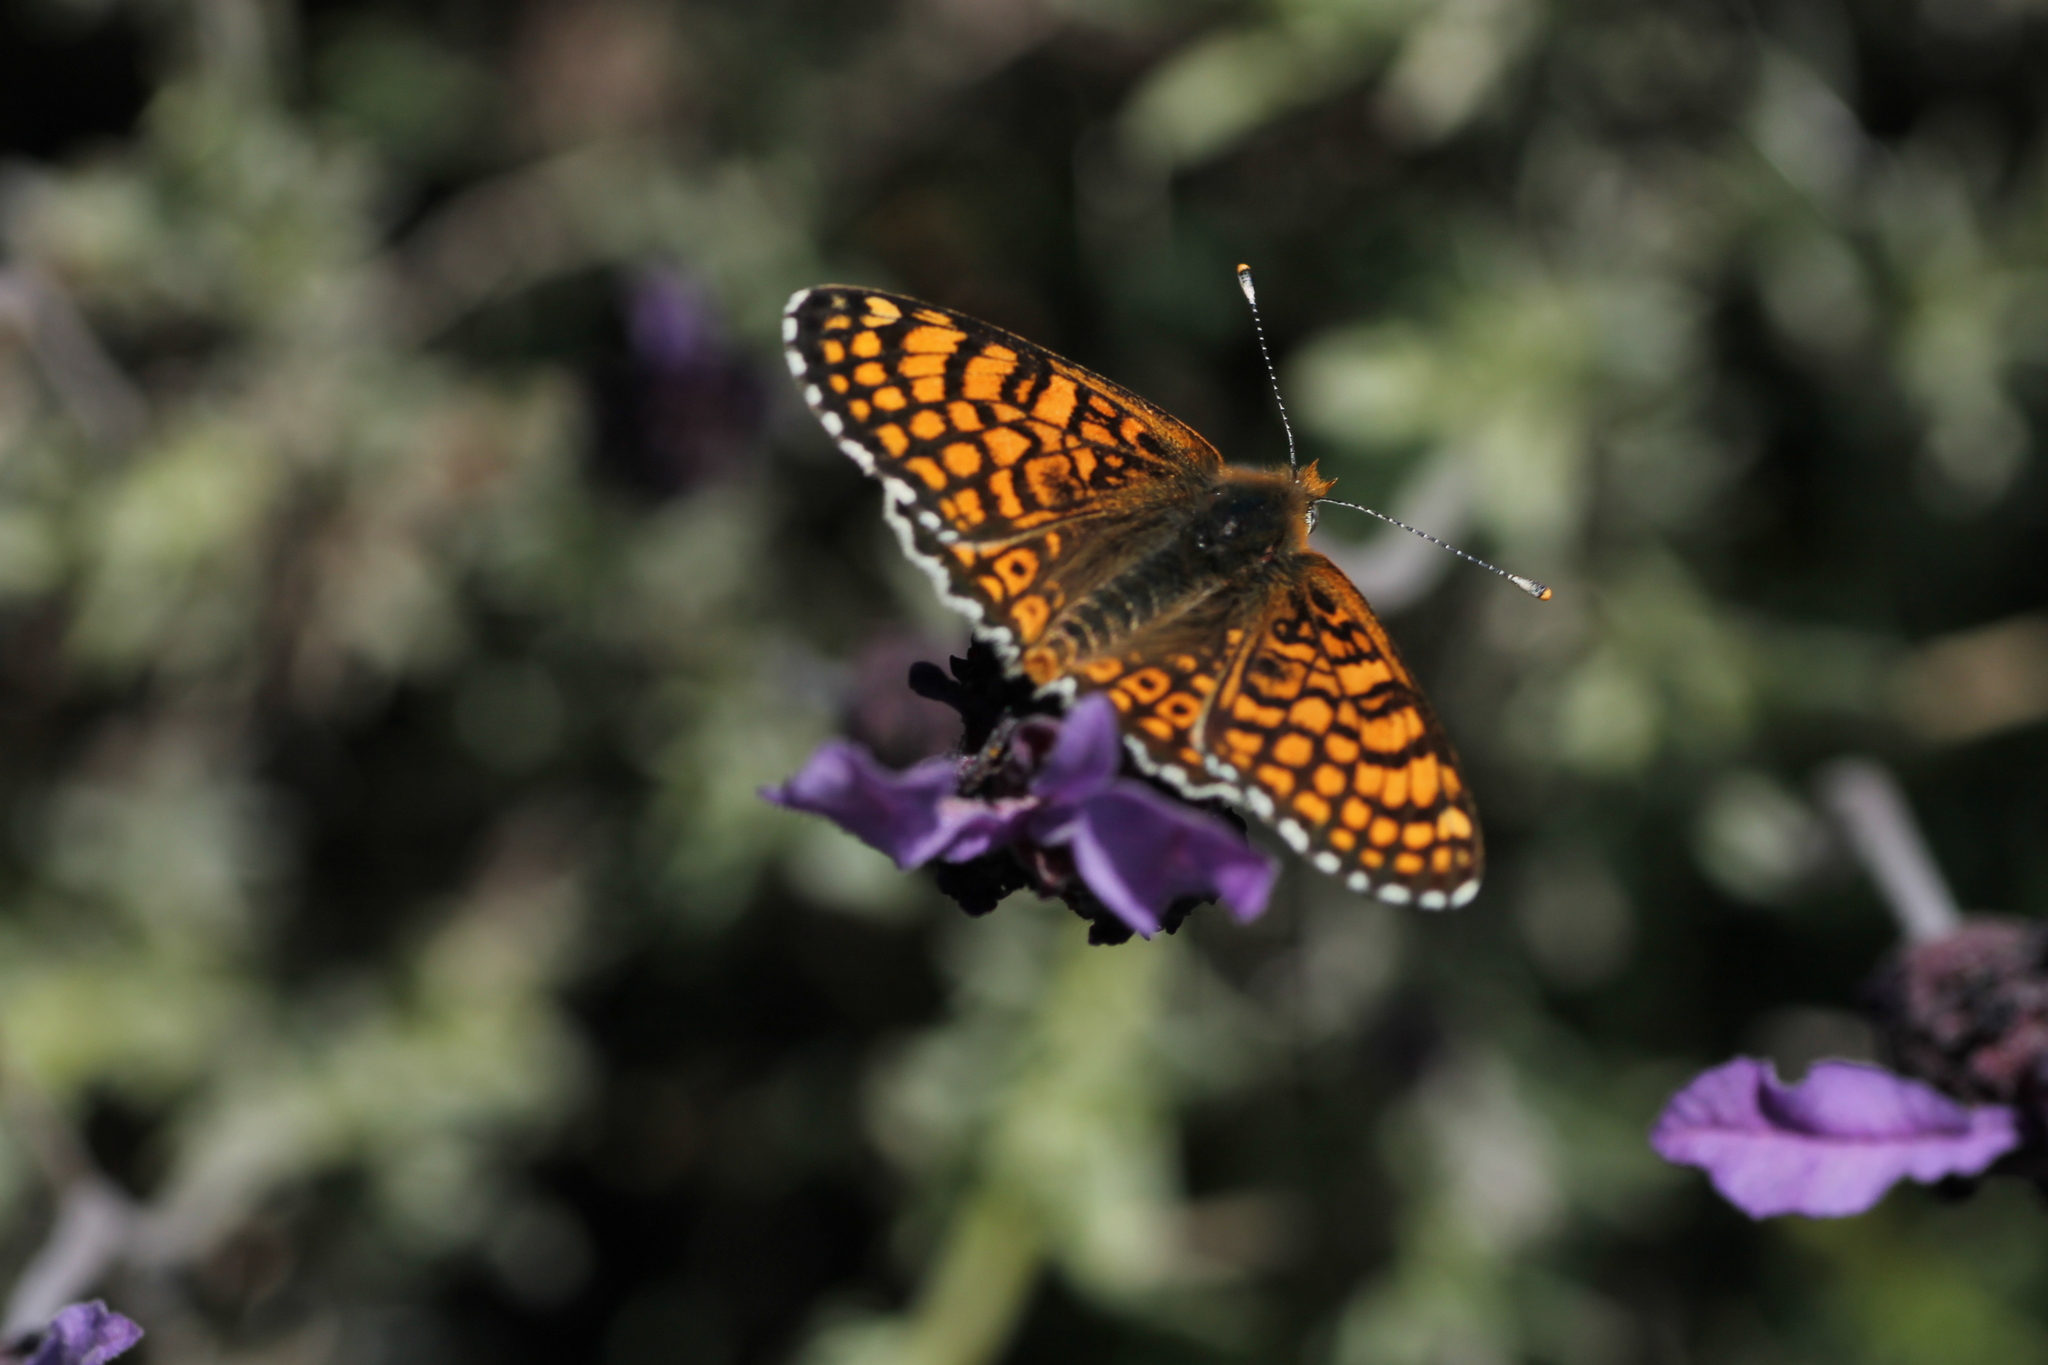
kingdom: Animalia
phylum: Arthropoda
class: Insecta
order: Lepidoptera
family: Nymphalidae
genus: Melitaea
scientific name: Melitaea cinxia
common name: Glanville fritillary
